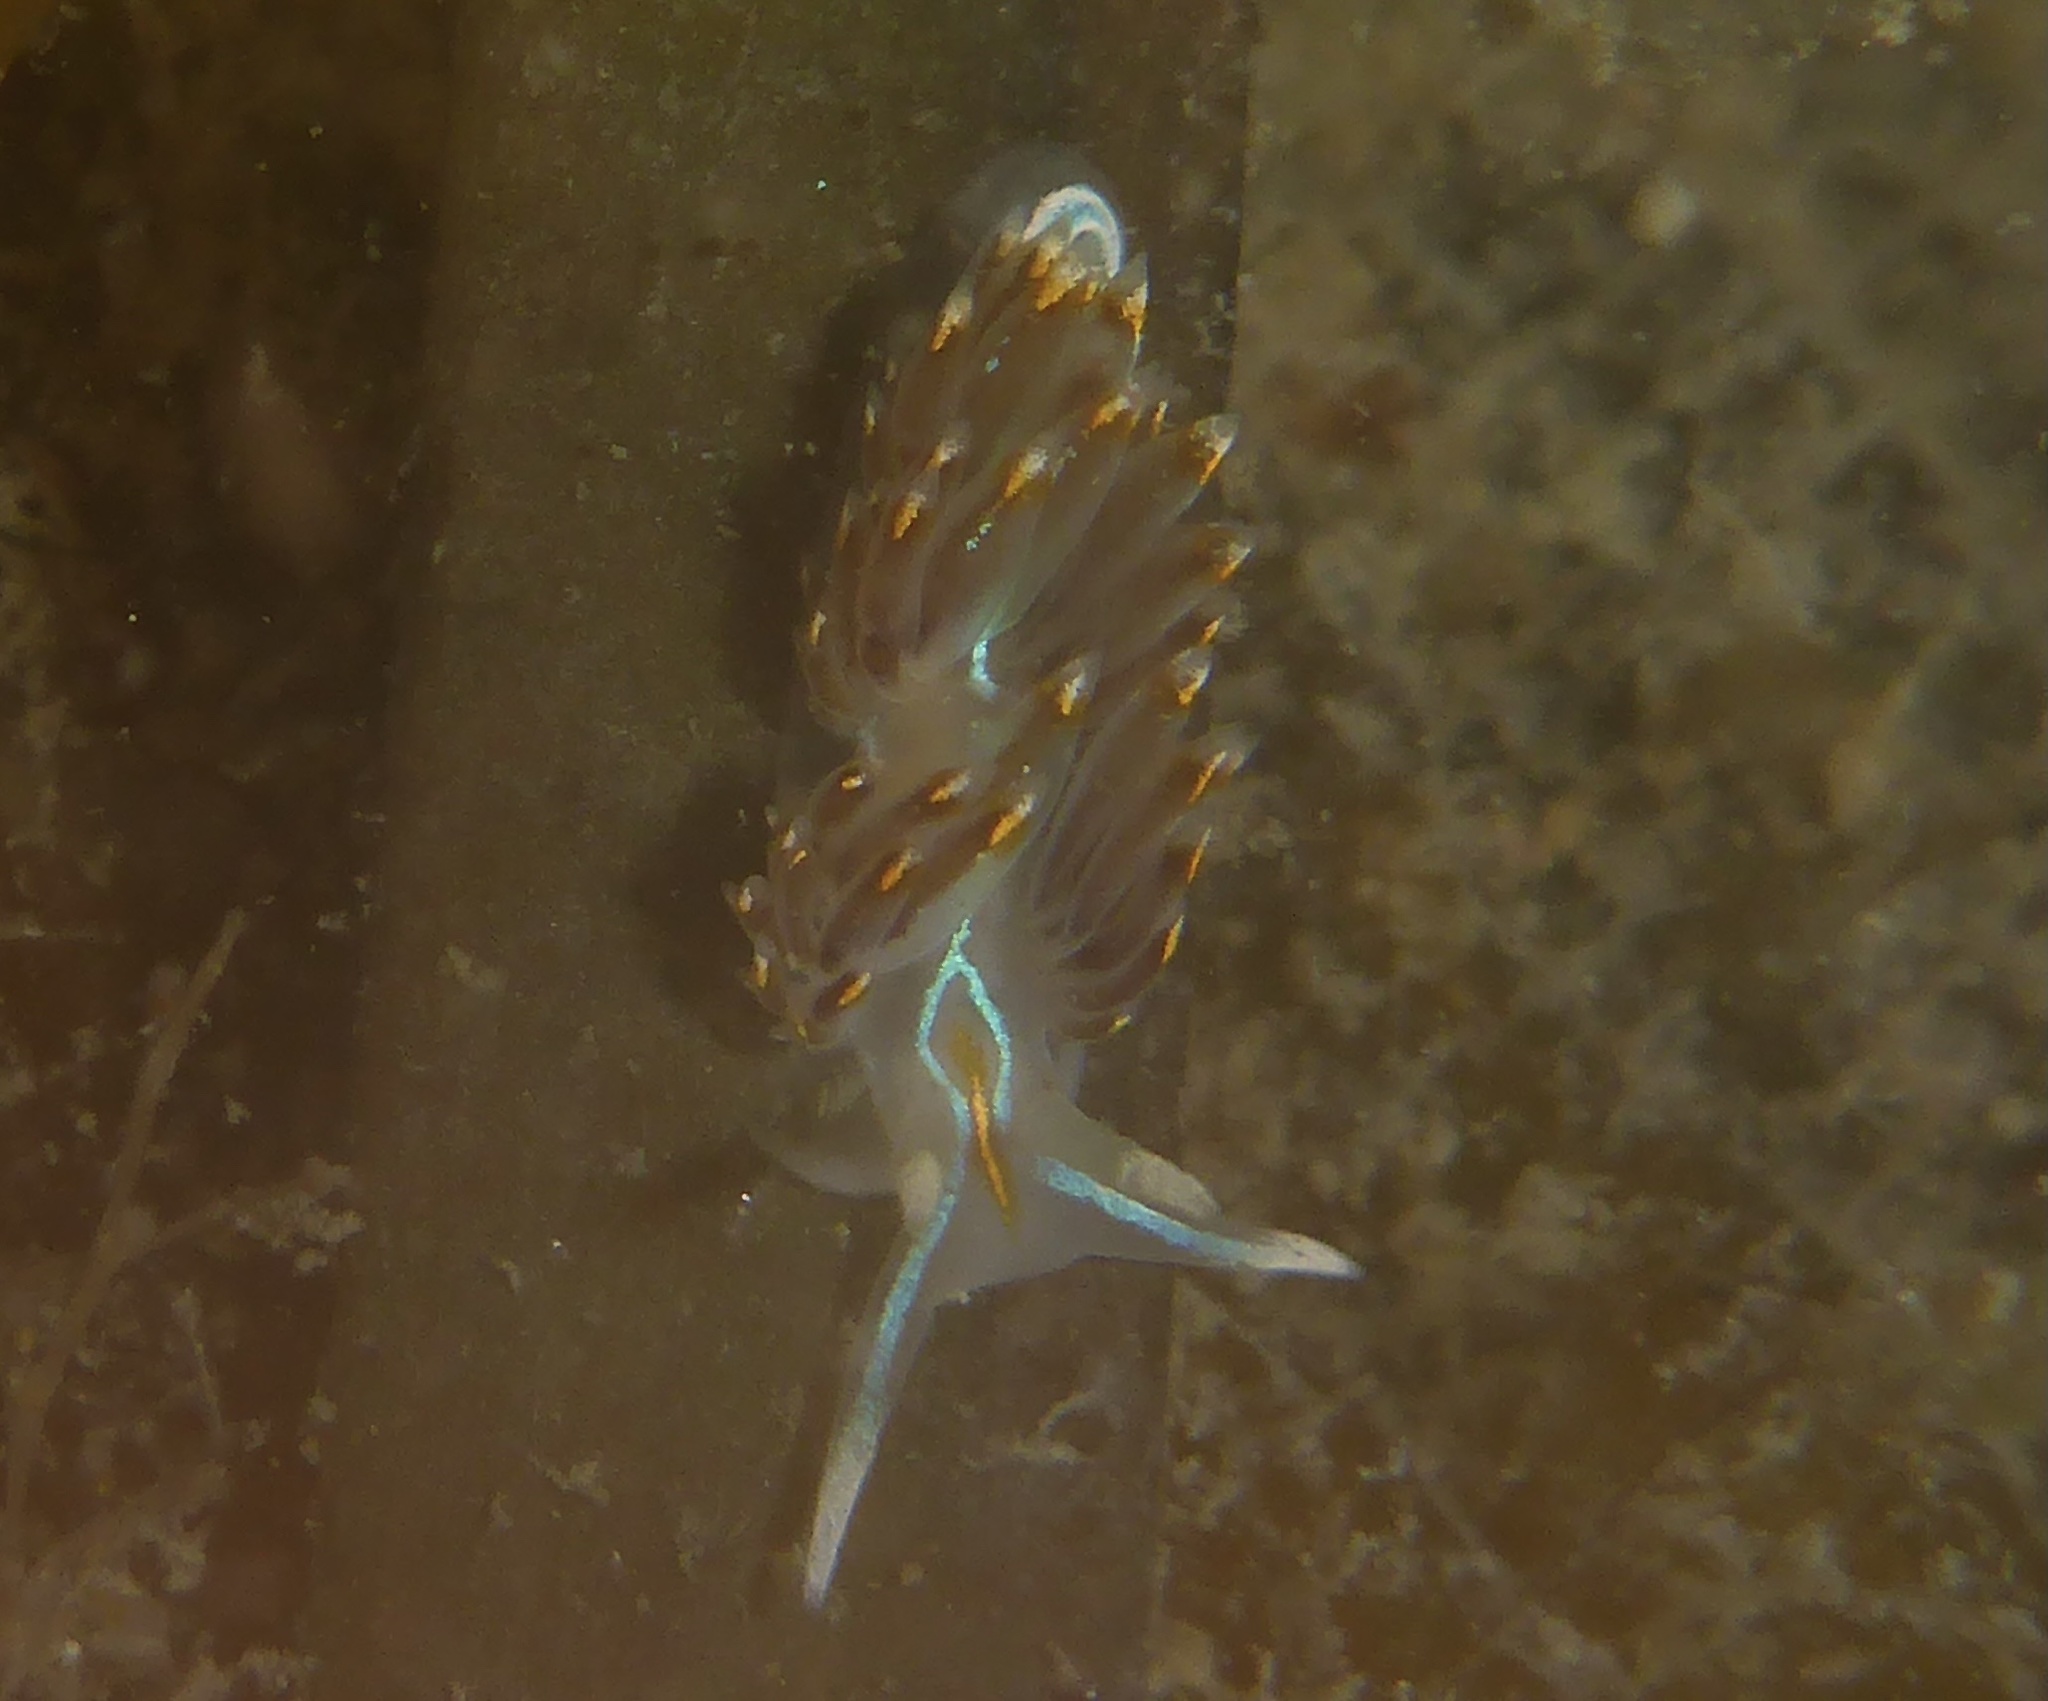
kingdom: Animalia
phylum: Mollusca
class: Gastropoda
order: Nudibranchia
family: Myrrhinidae
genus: Hermissenda
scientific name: Hermissenda opalescens
